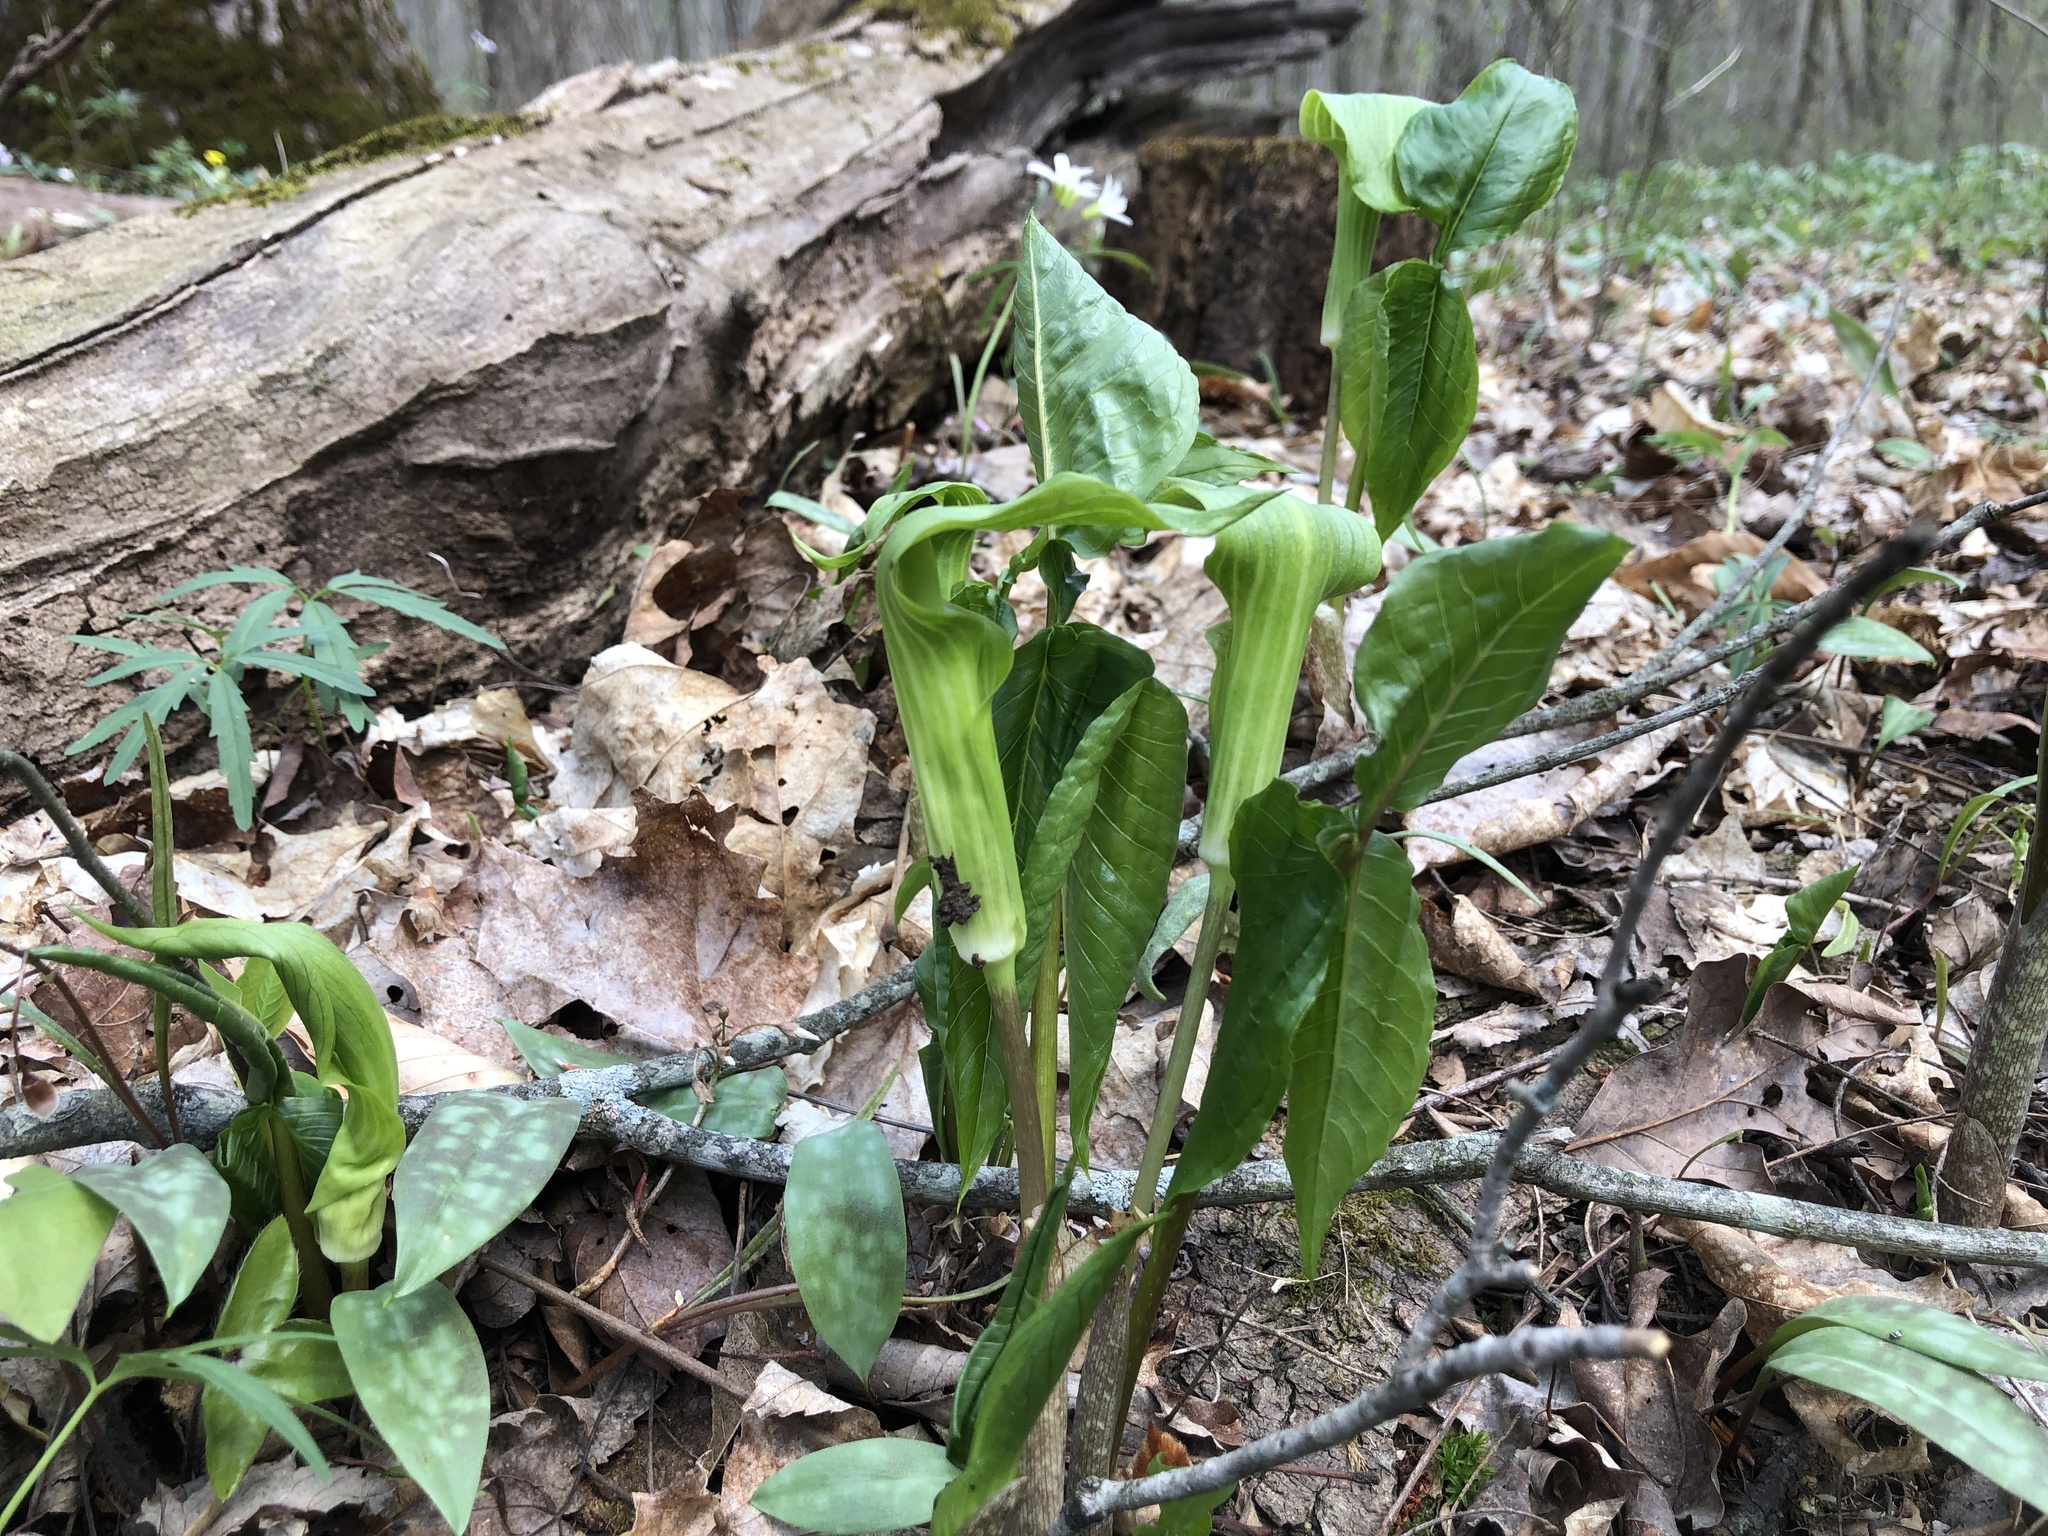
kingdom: Plantae
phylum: Tracheophyta
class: Liliopsida
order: Alismatales
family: Araceae
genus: Arisaema
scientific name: Arisaema triphyllum
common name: Jack-in-the-pulpit
